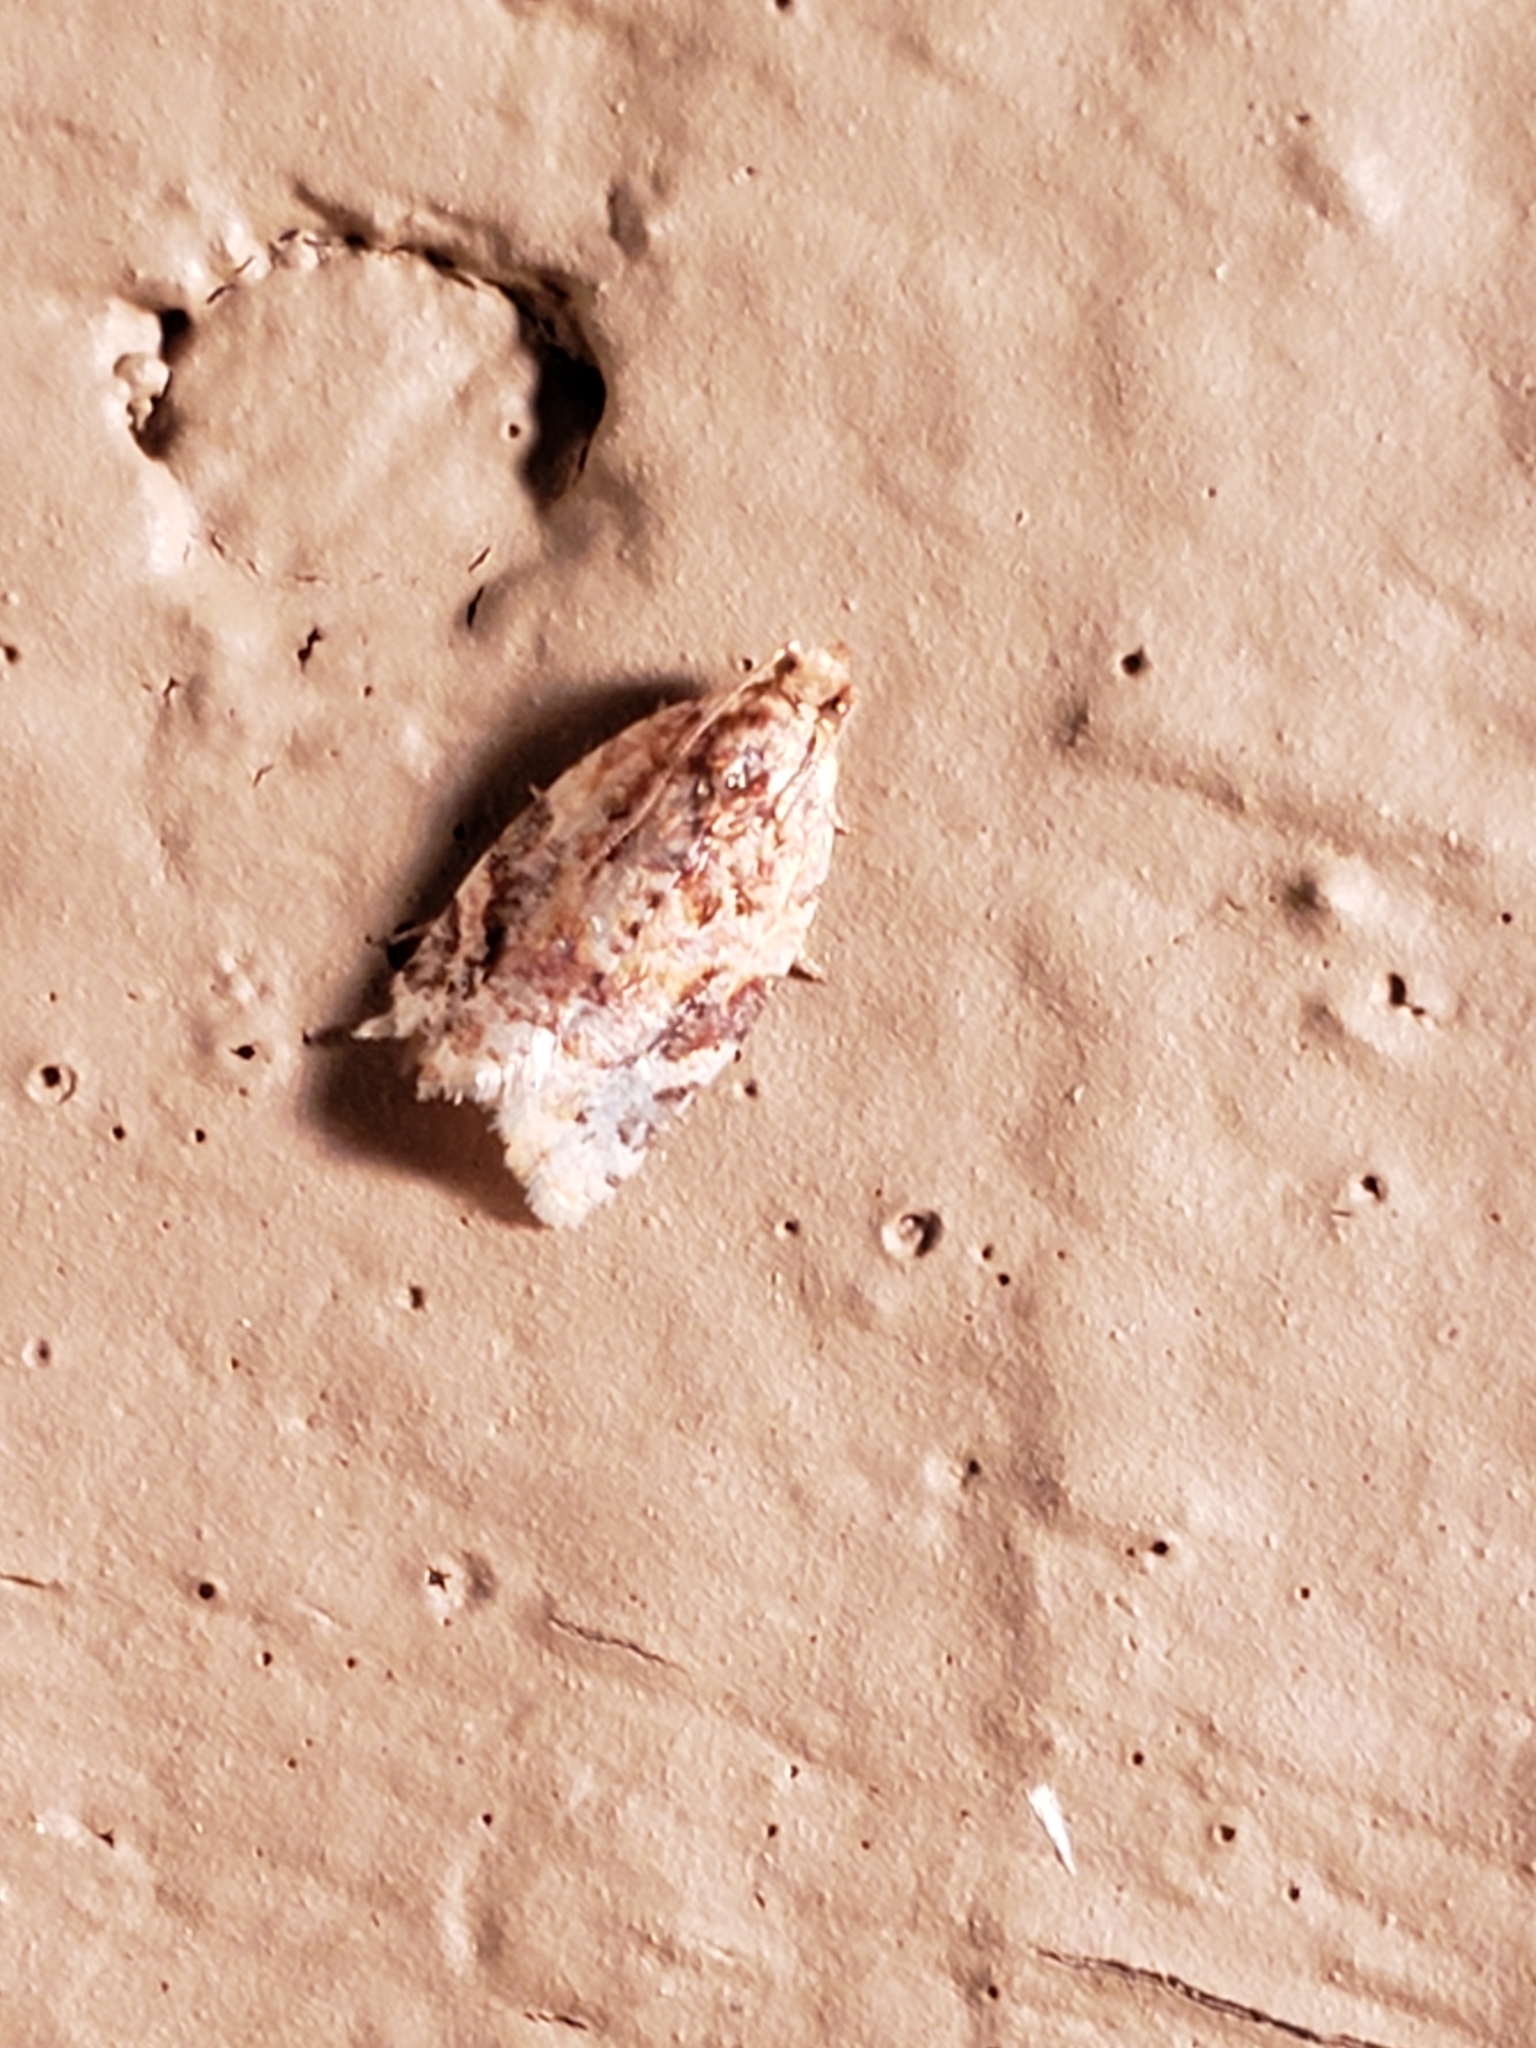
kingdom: Animalia
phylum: Arthropoda
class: Insecta
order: Lepidoptera
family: Tortricidae
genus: Argyrotaenia
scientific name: Argyrotaenia velutinana
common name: Red-banded leafroller moth
